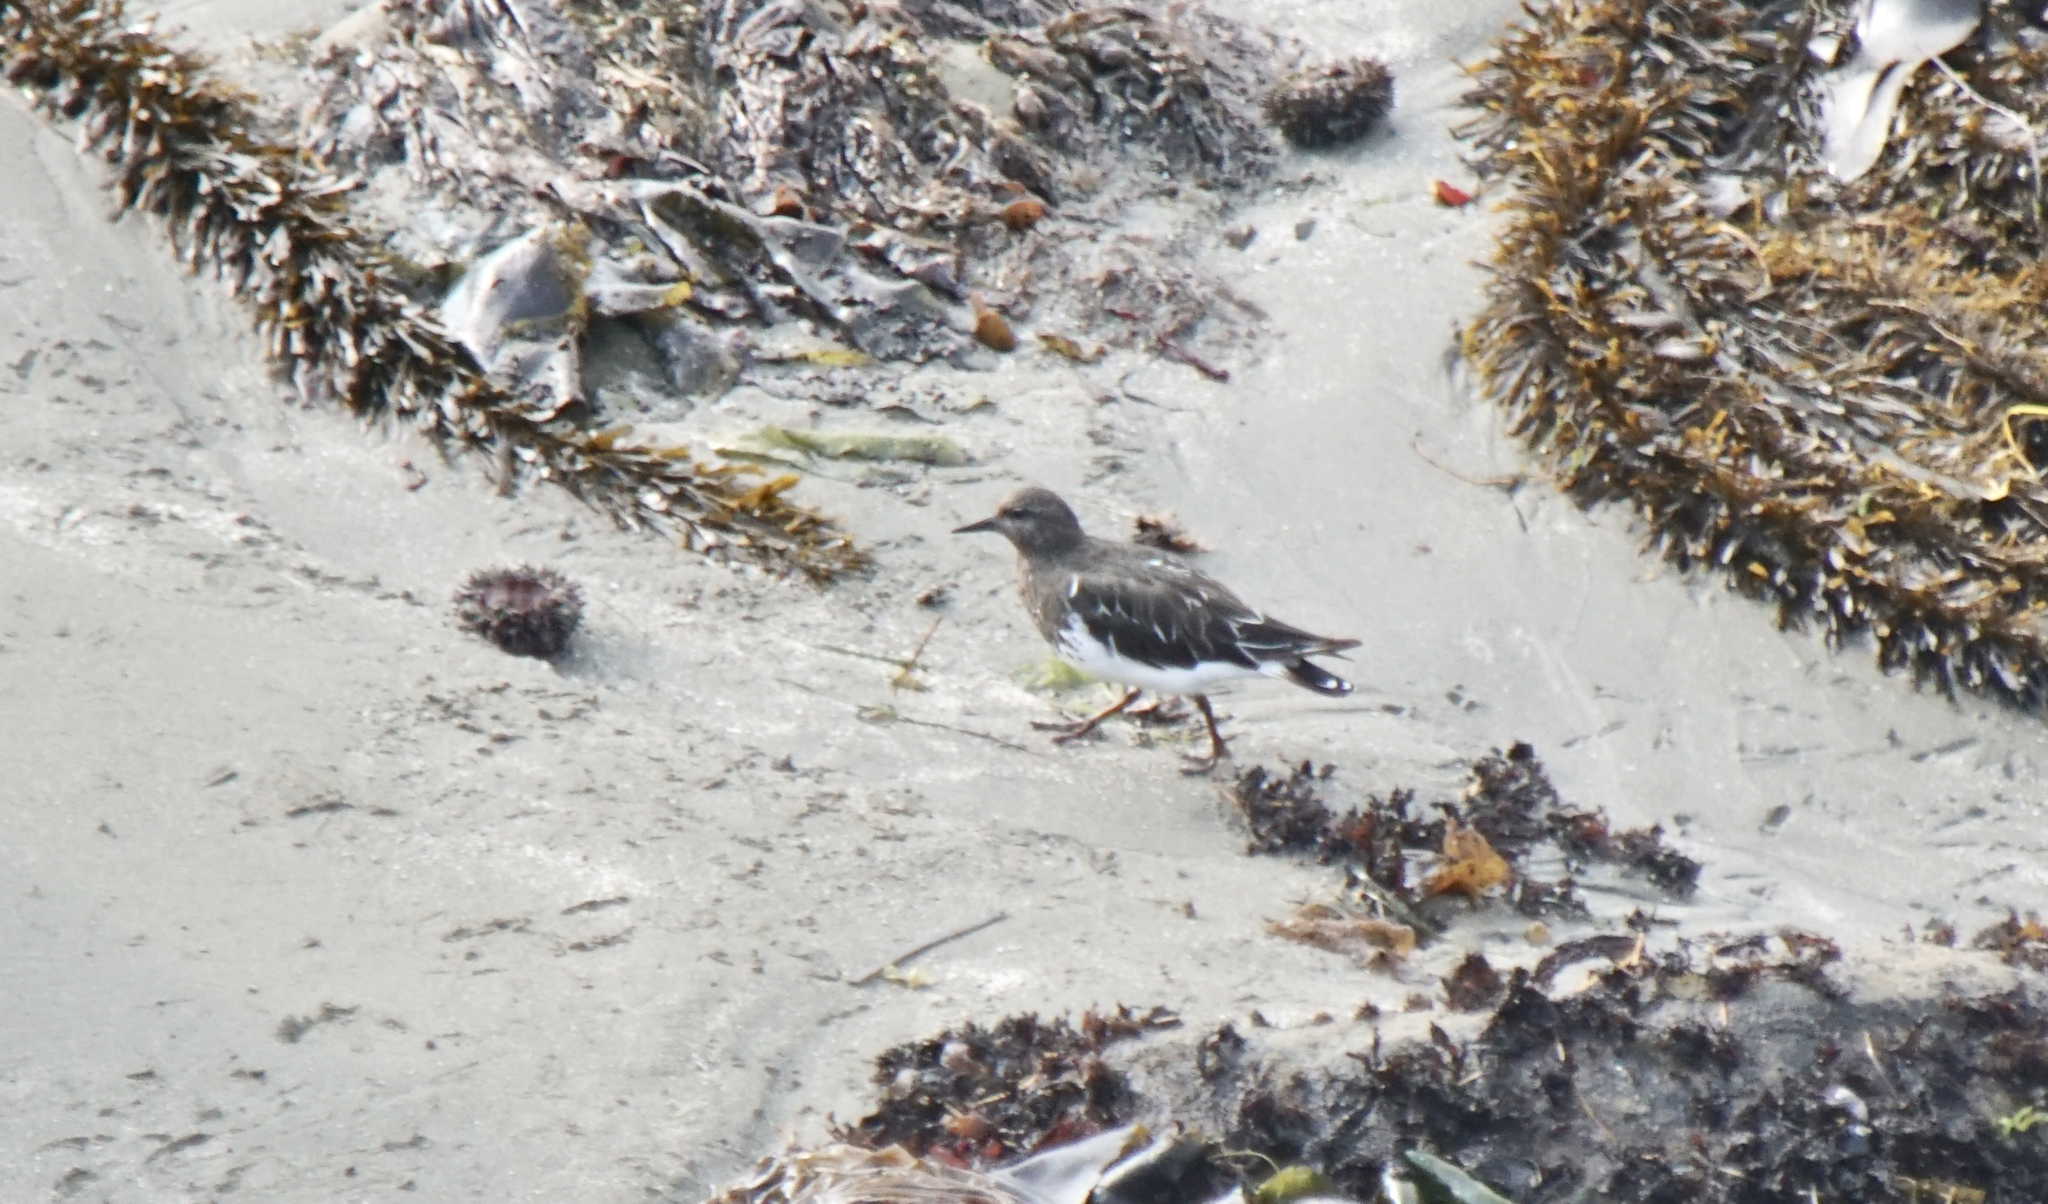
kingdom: Animalia
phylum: Chordata
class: Aves
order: Charadriiformes
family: Scolopacidae
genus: Arenaria
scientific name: Arenaria melanocephala
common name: Black turnstone
